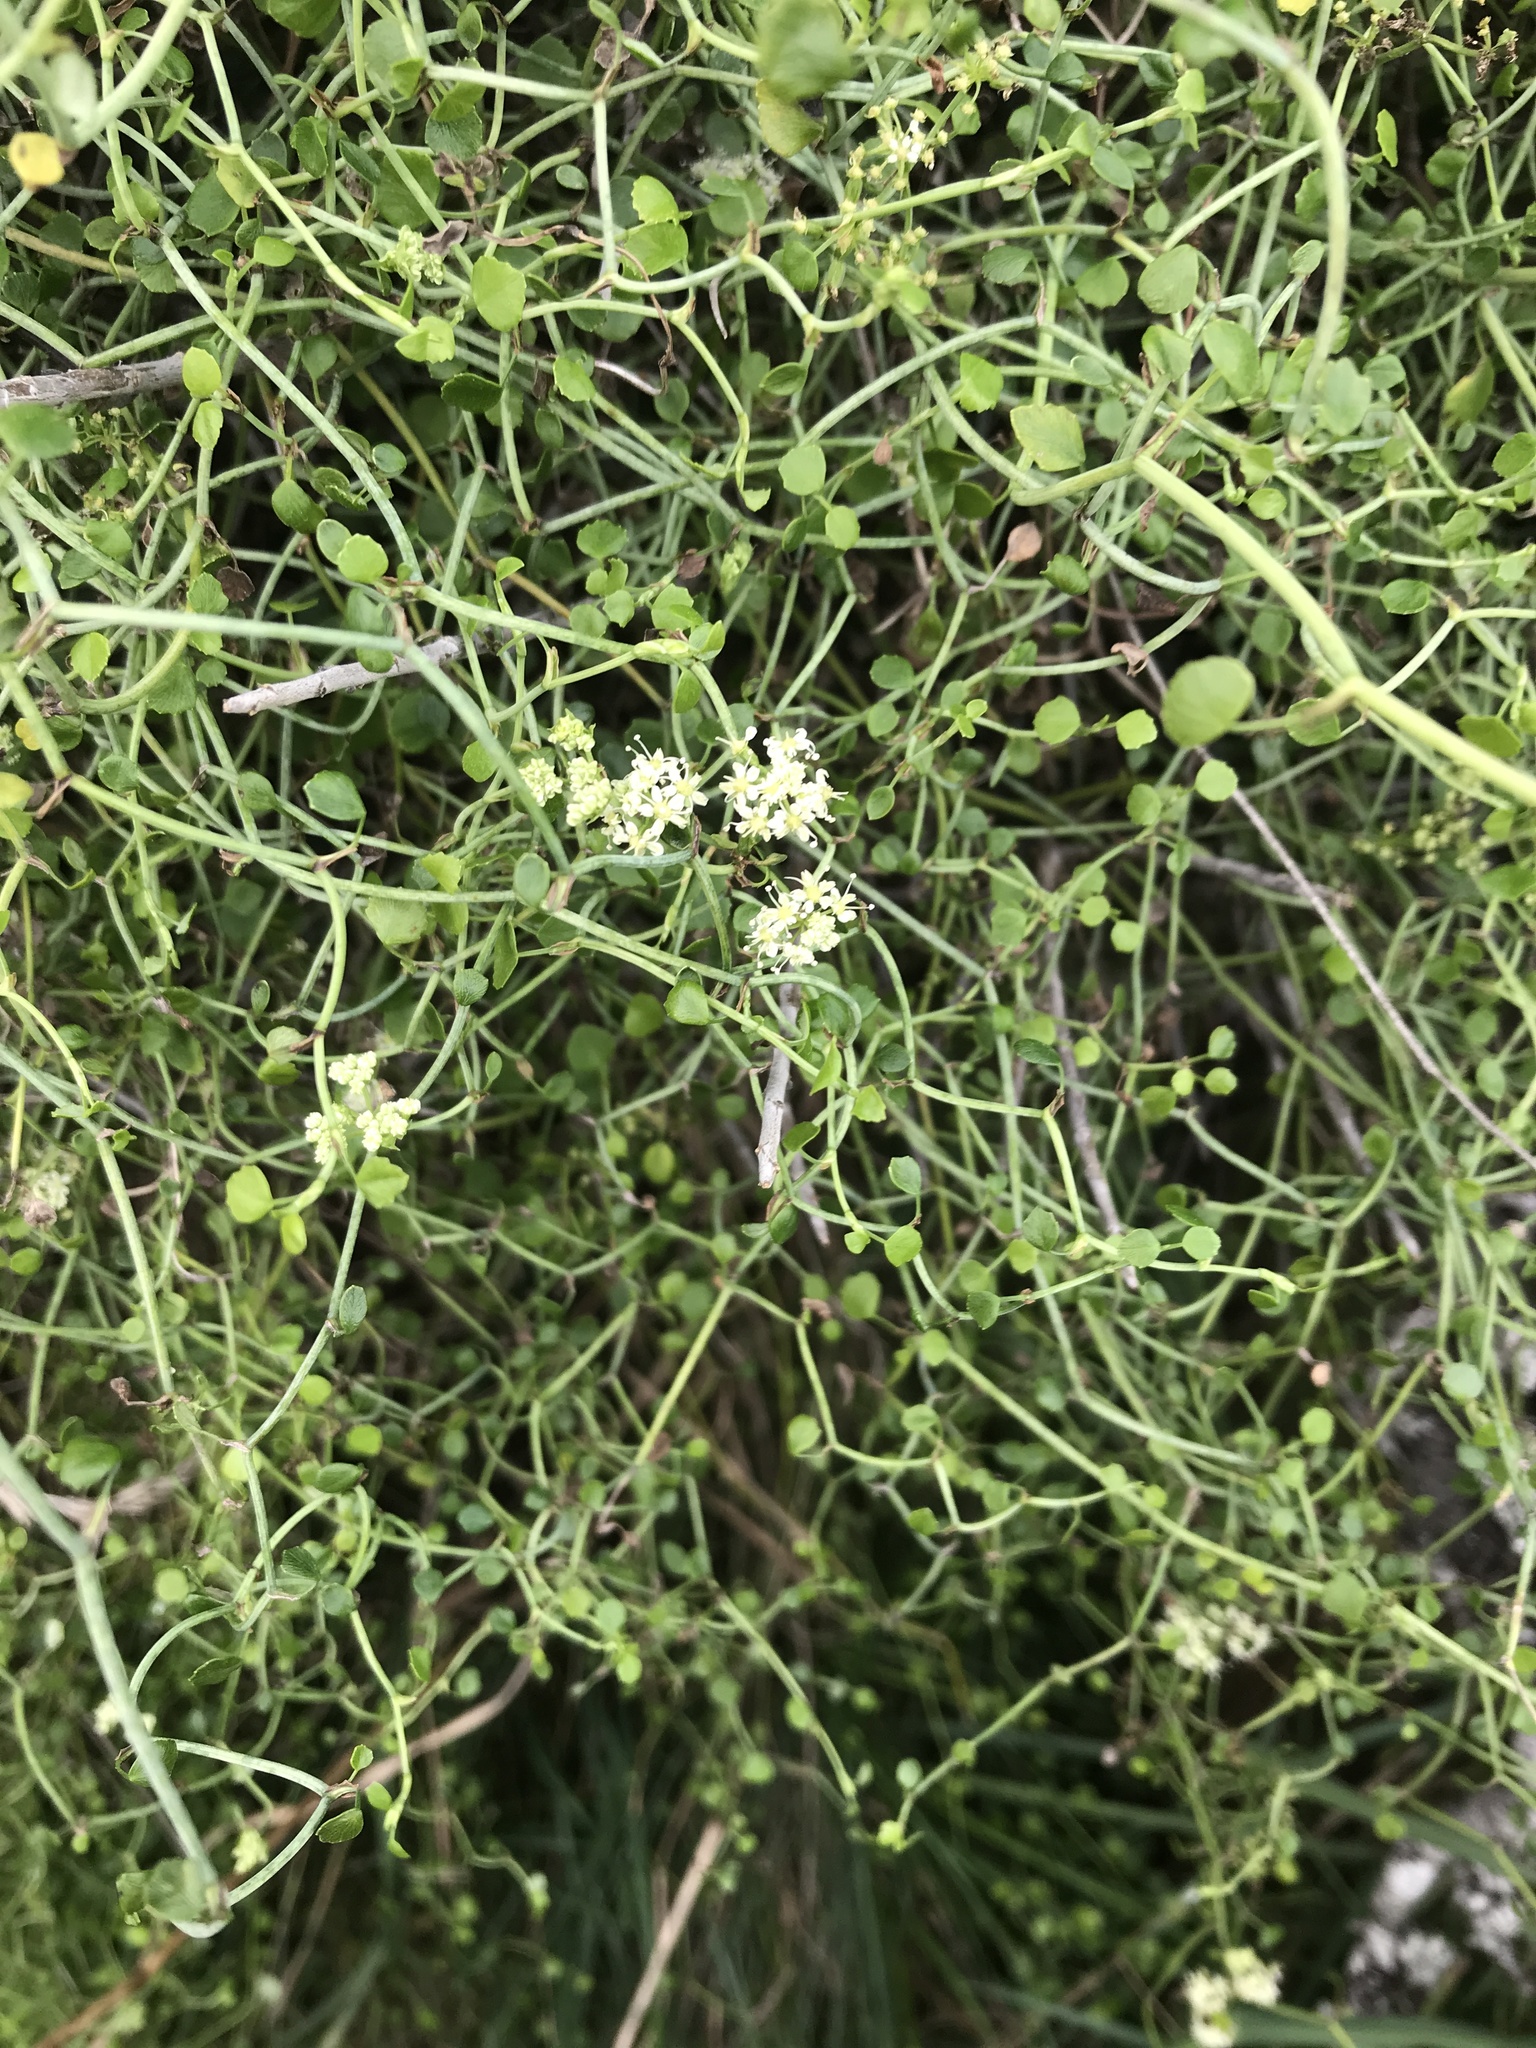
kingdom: Plantae
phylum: Tracheophyta
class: Magnoliopsida
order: Apiales
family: Apiaceae
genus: Scandia
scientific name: Scandia geniculata
